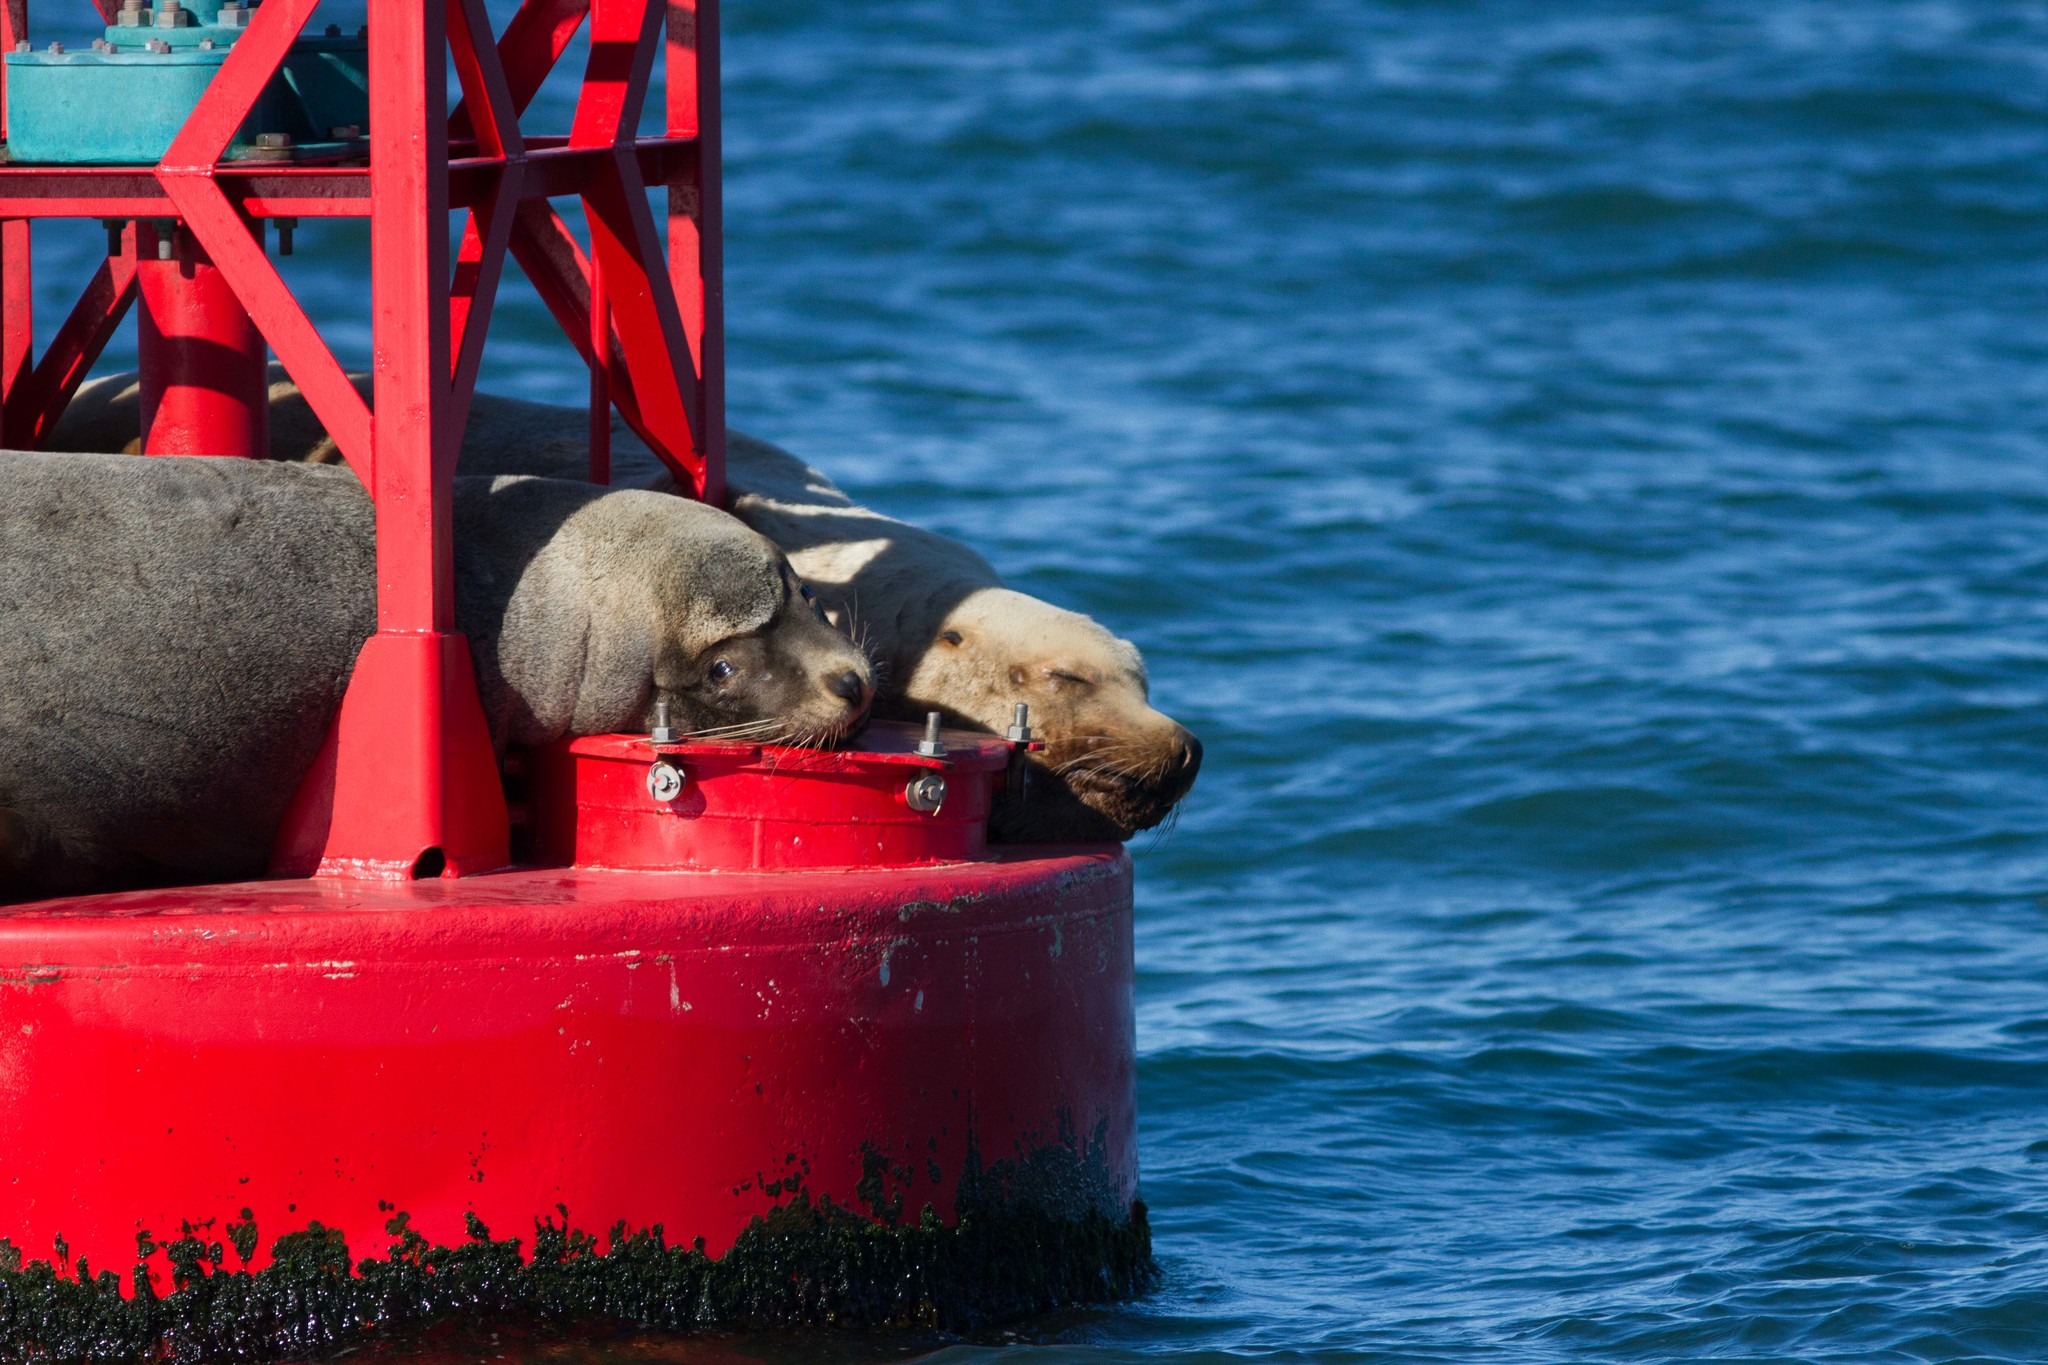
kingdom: Animalia
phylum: Chordata
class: Mammalia
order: Carnivora
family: Otariidae
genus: Eumetopias
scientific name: Eumetopias jubatus
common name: Steller sea lion
